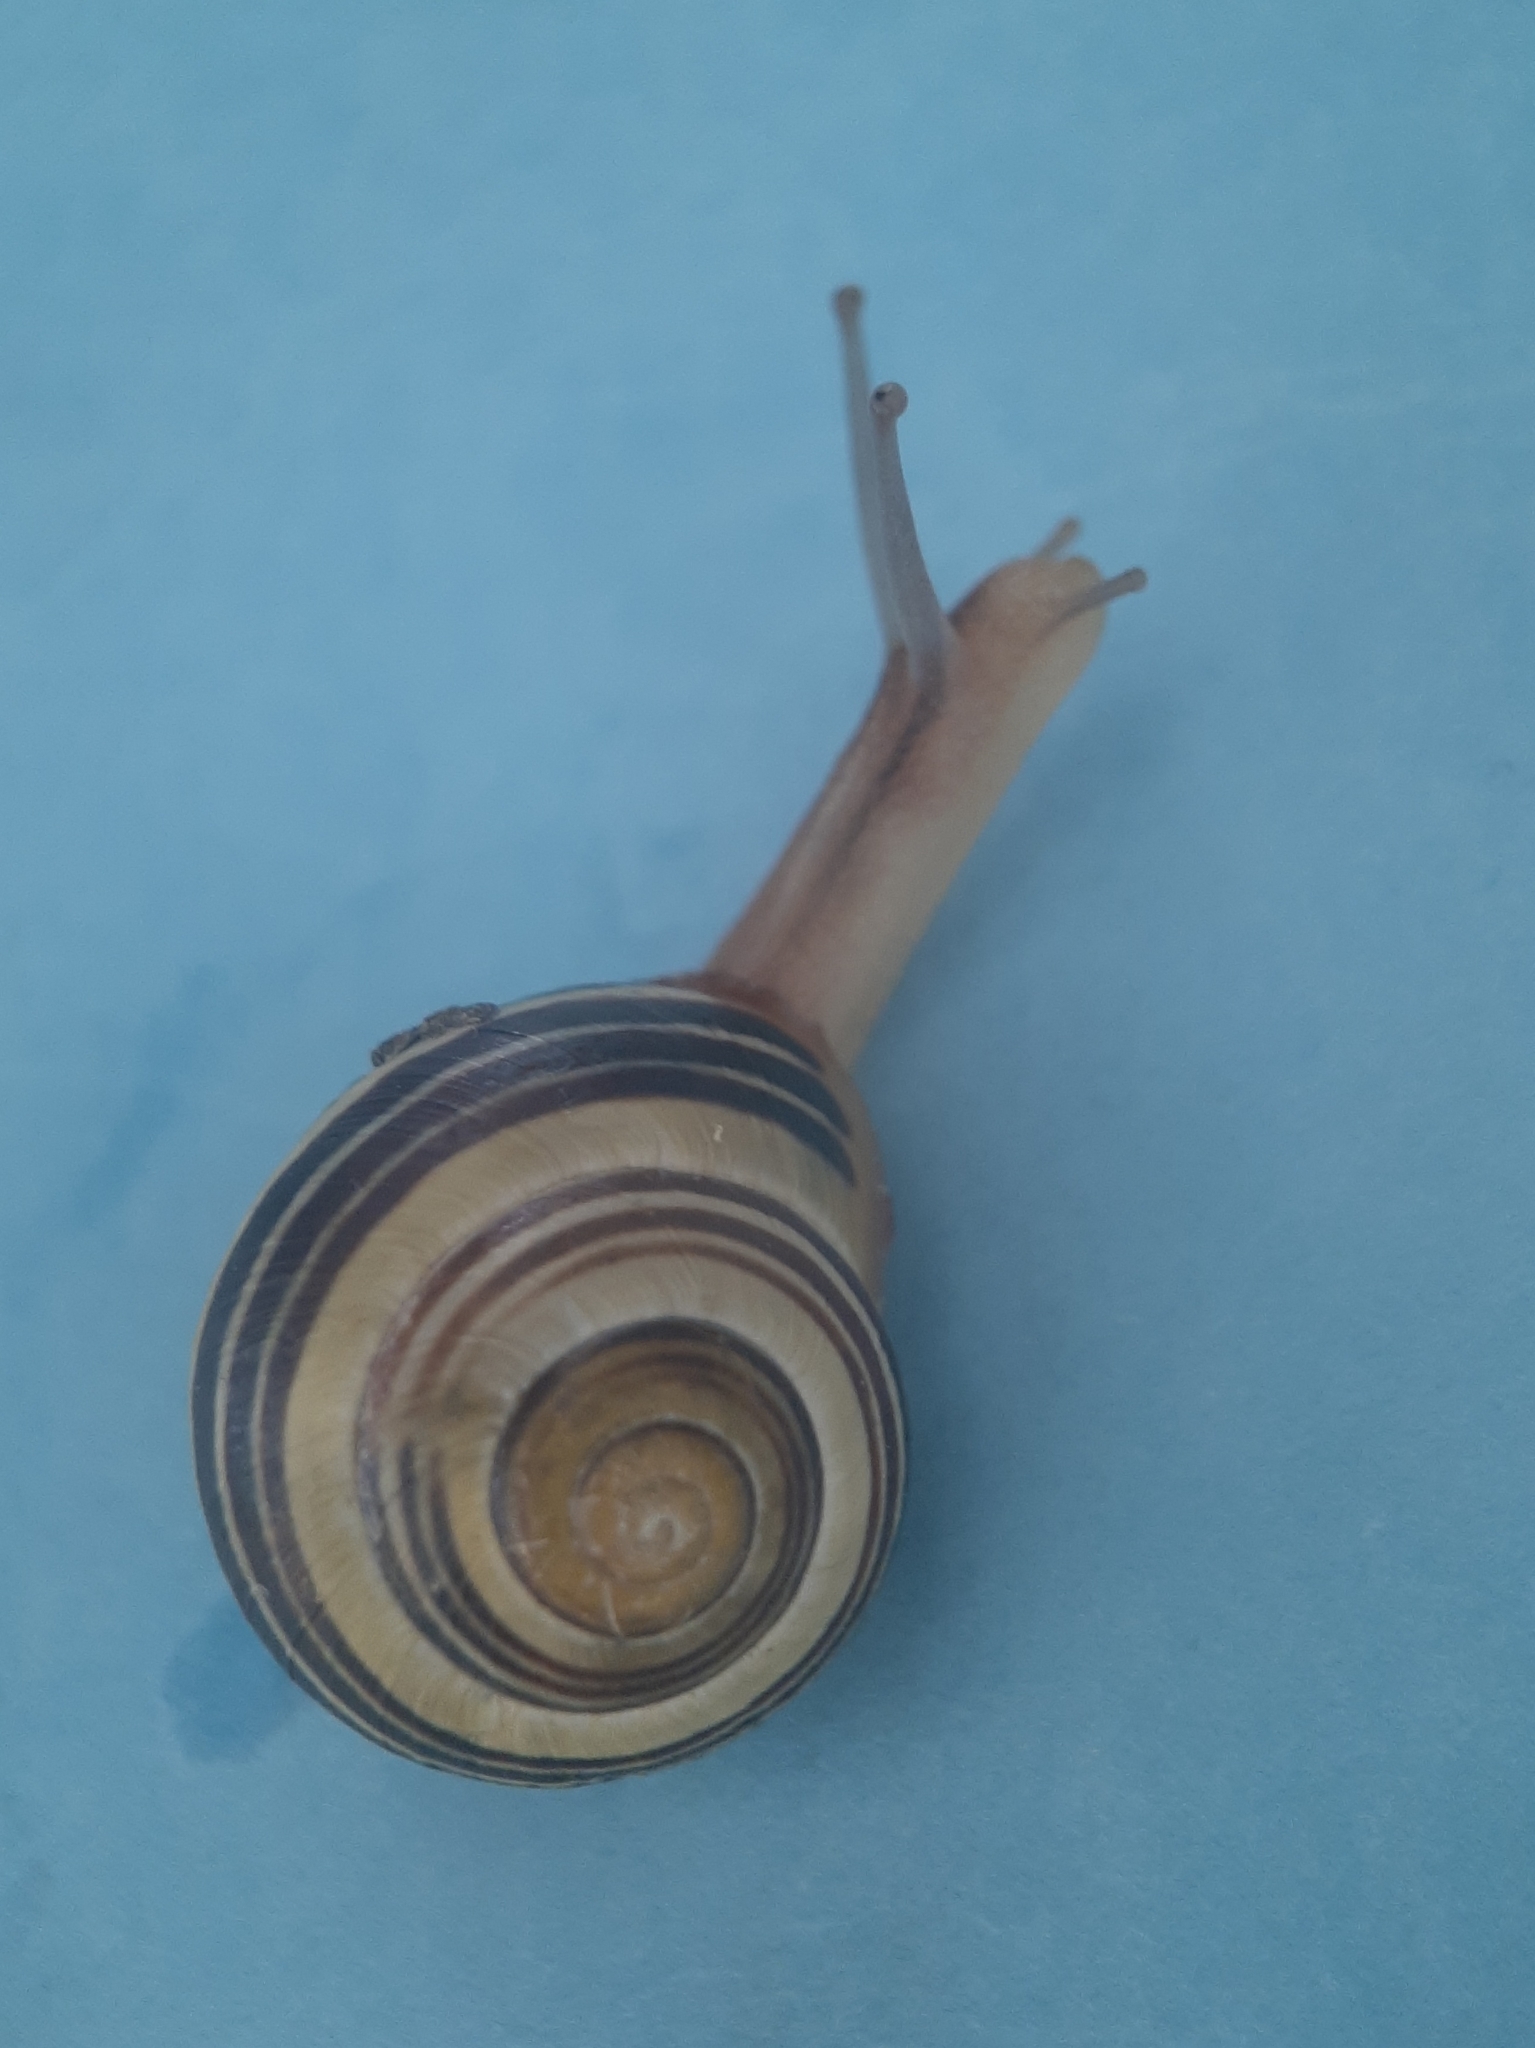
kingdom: Animalia
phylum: Mollusca
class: Gastropoda
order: Stylommatophora
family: Helicidae
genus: Cepaea
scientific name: Cepaea nemoralis
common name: Grovesnail
